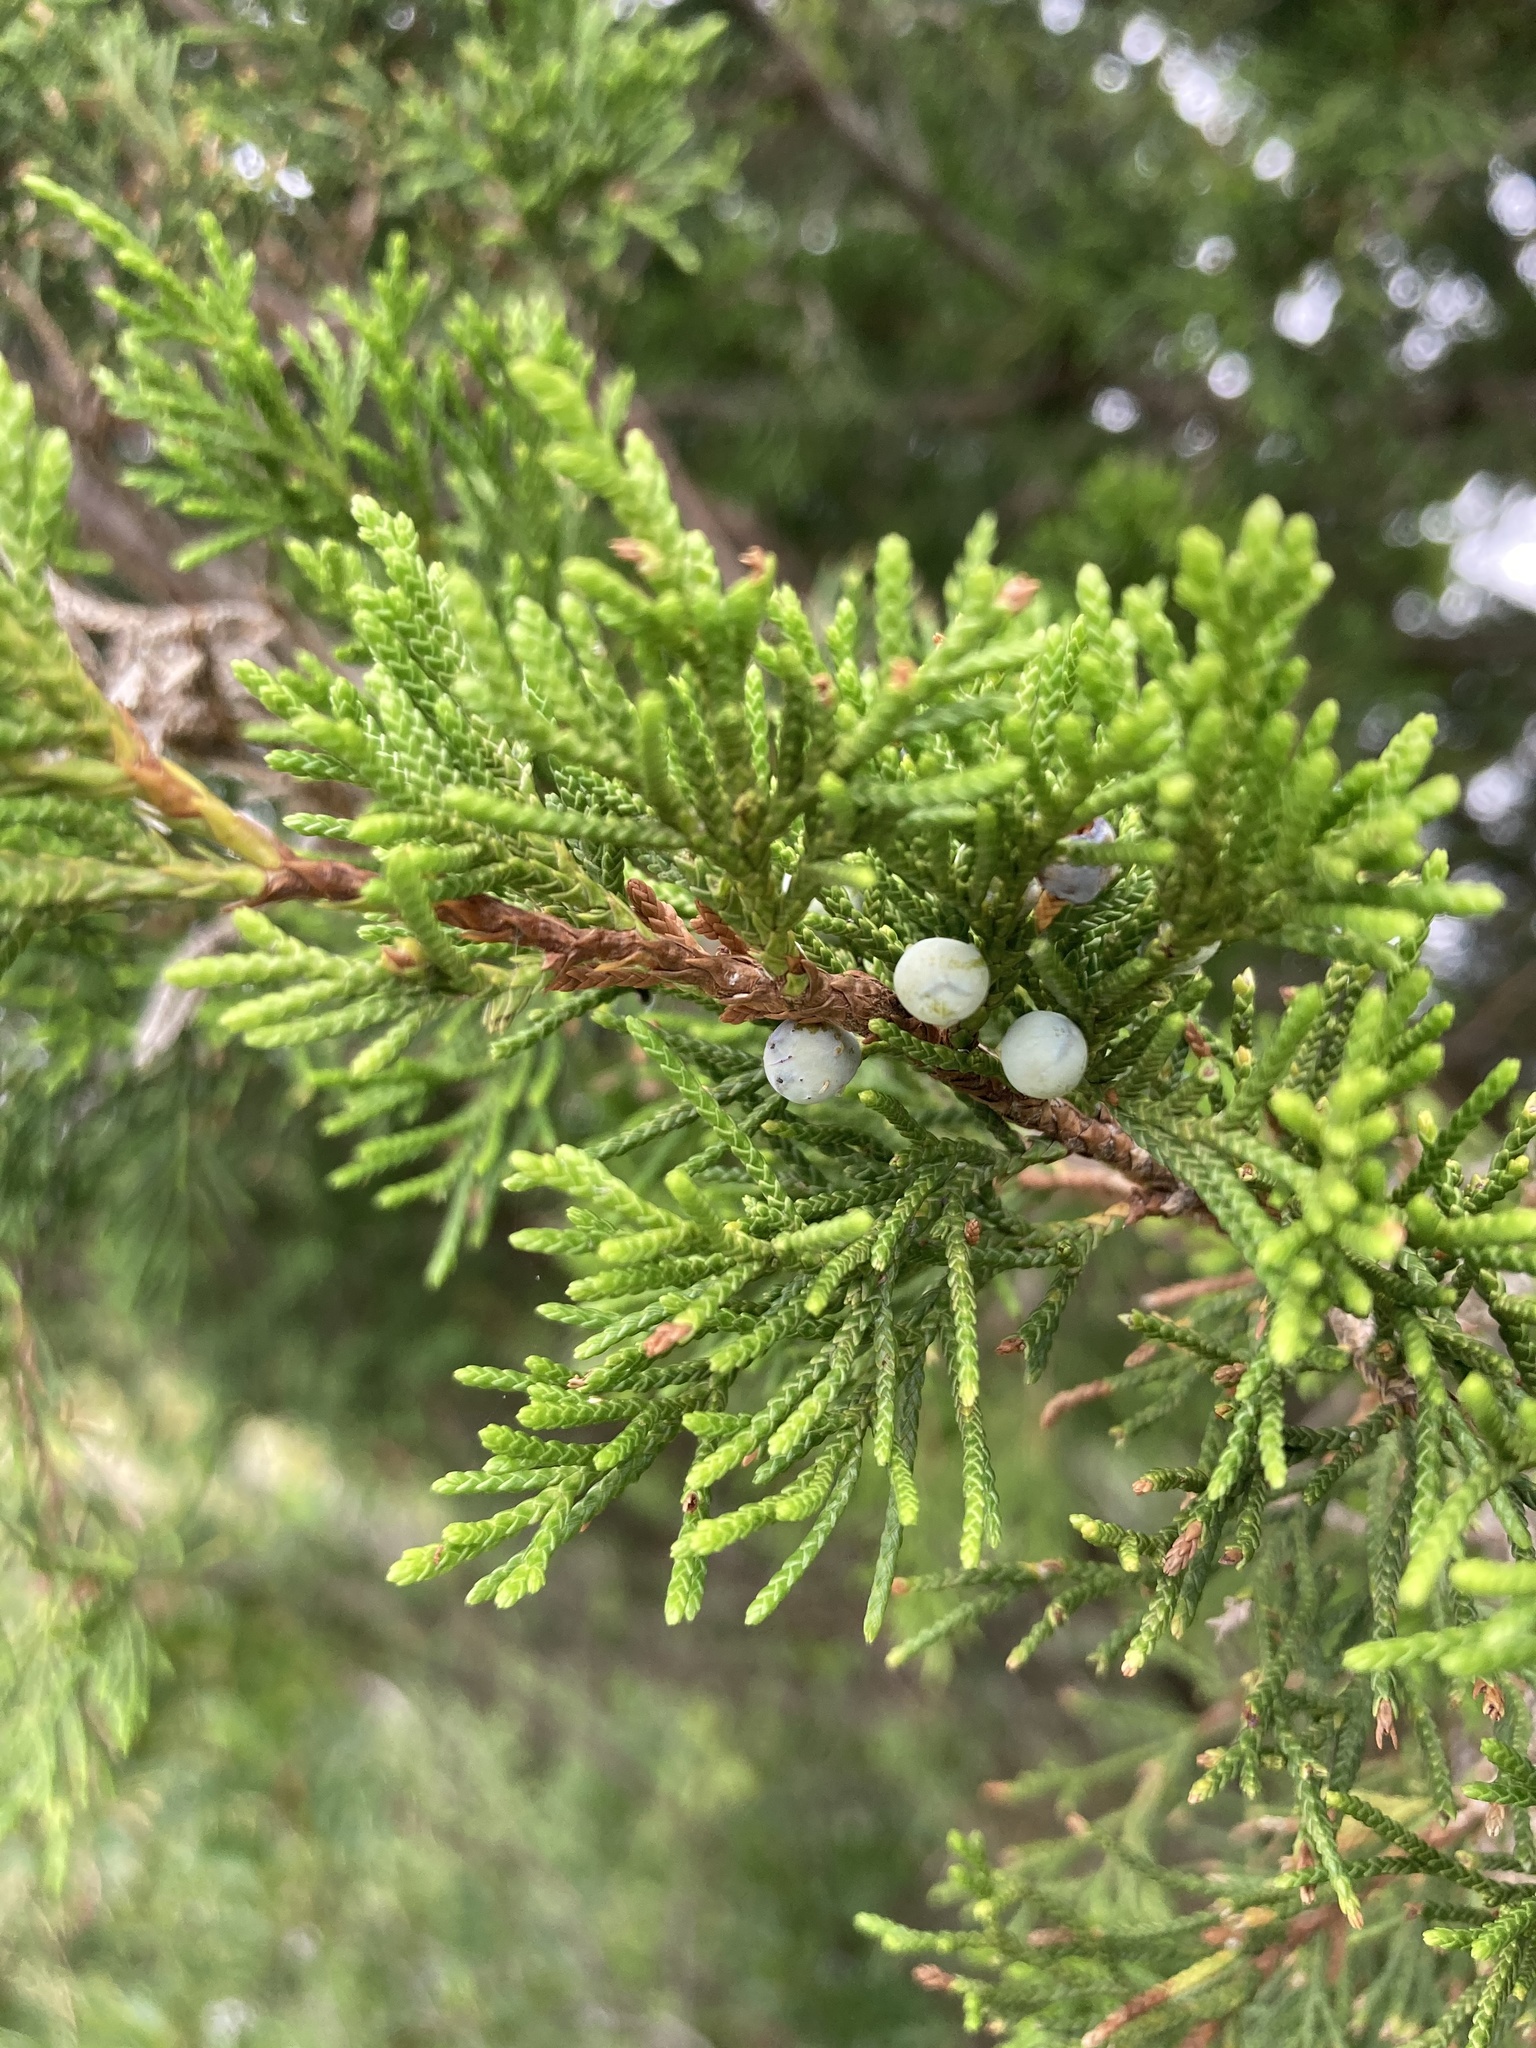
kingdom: Plantae
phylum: Tracheophyta
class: Pinopsida
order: Pinales
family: Cupressaceae
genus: Juniperus
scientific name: Juniperus virginiana
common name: Red juniper
